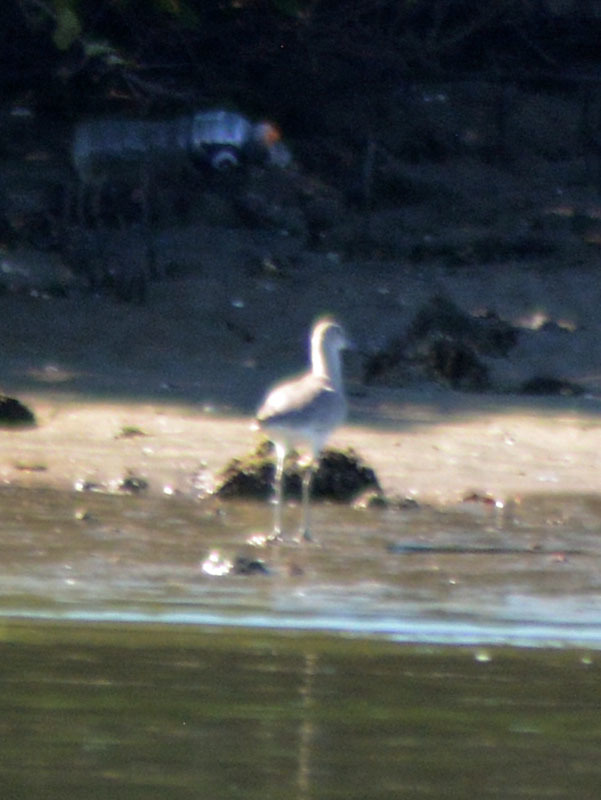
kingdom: Animalia
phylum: Chordata
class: Aves
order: Charadriiformes
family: Scolopacidae
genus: Tringa
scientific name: Tringa semipalmata
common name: Willet
